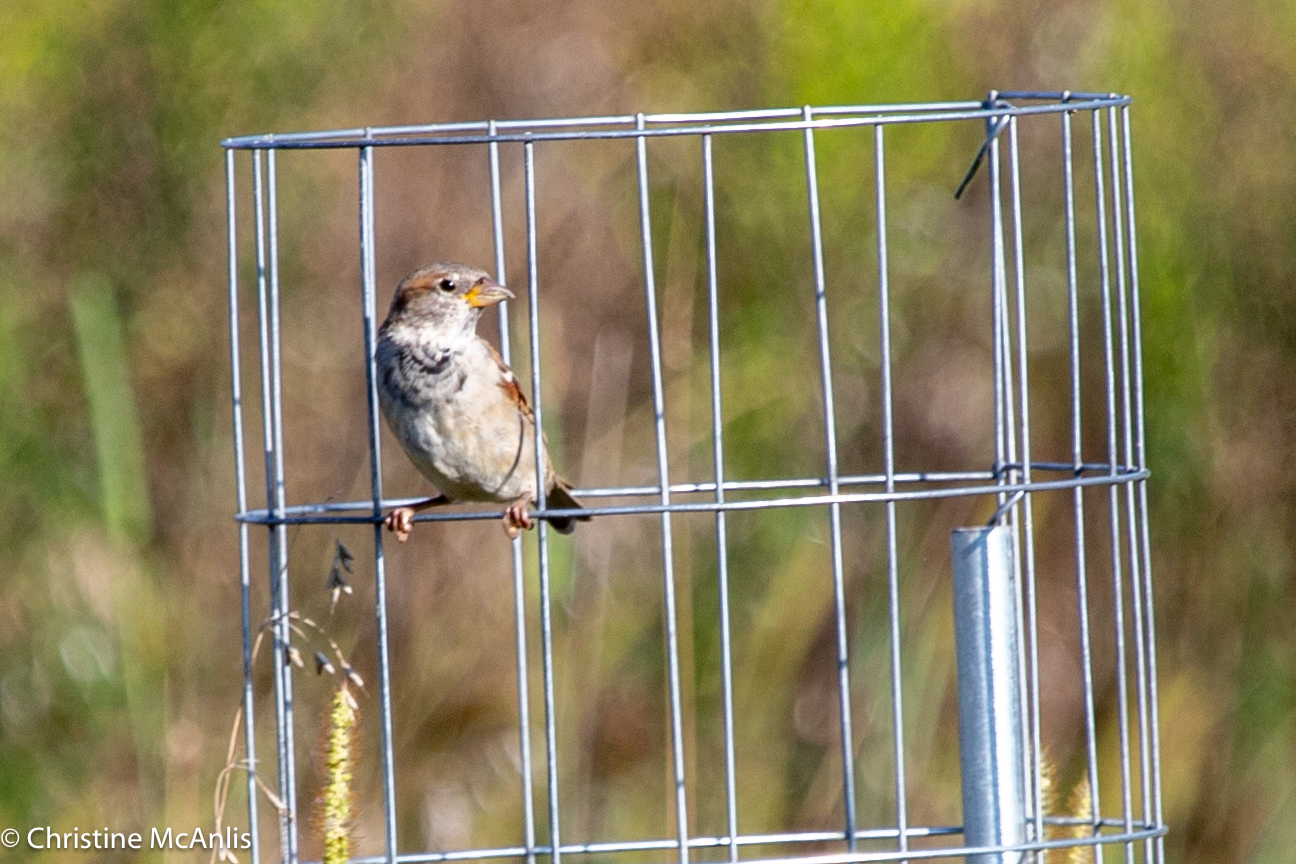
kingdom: Animalia
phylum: Chordata
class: Aves
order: Passeriformes
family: Passeridae
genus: Passer
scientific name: Passer domesticus
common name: House sparrow
